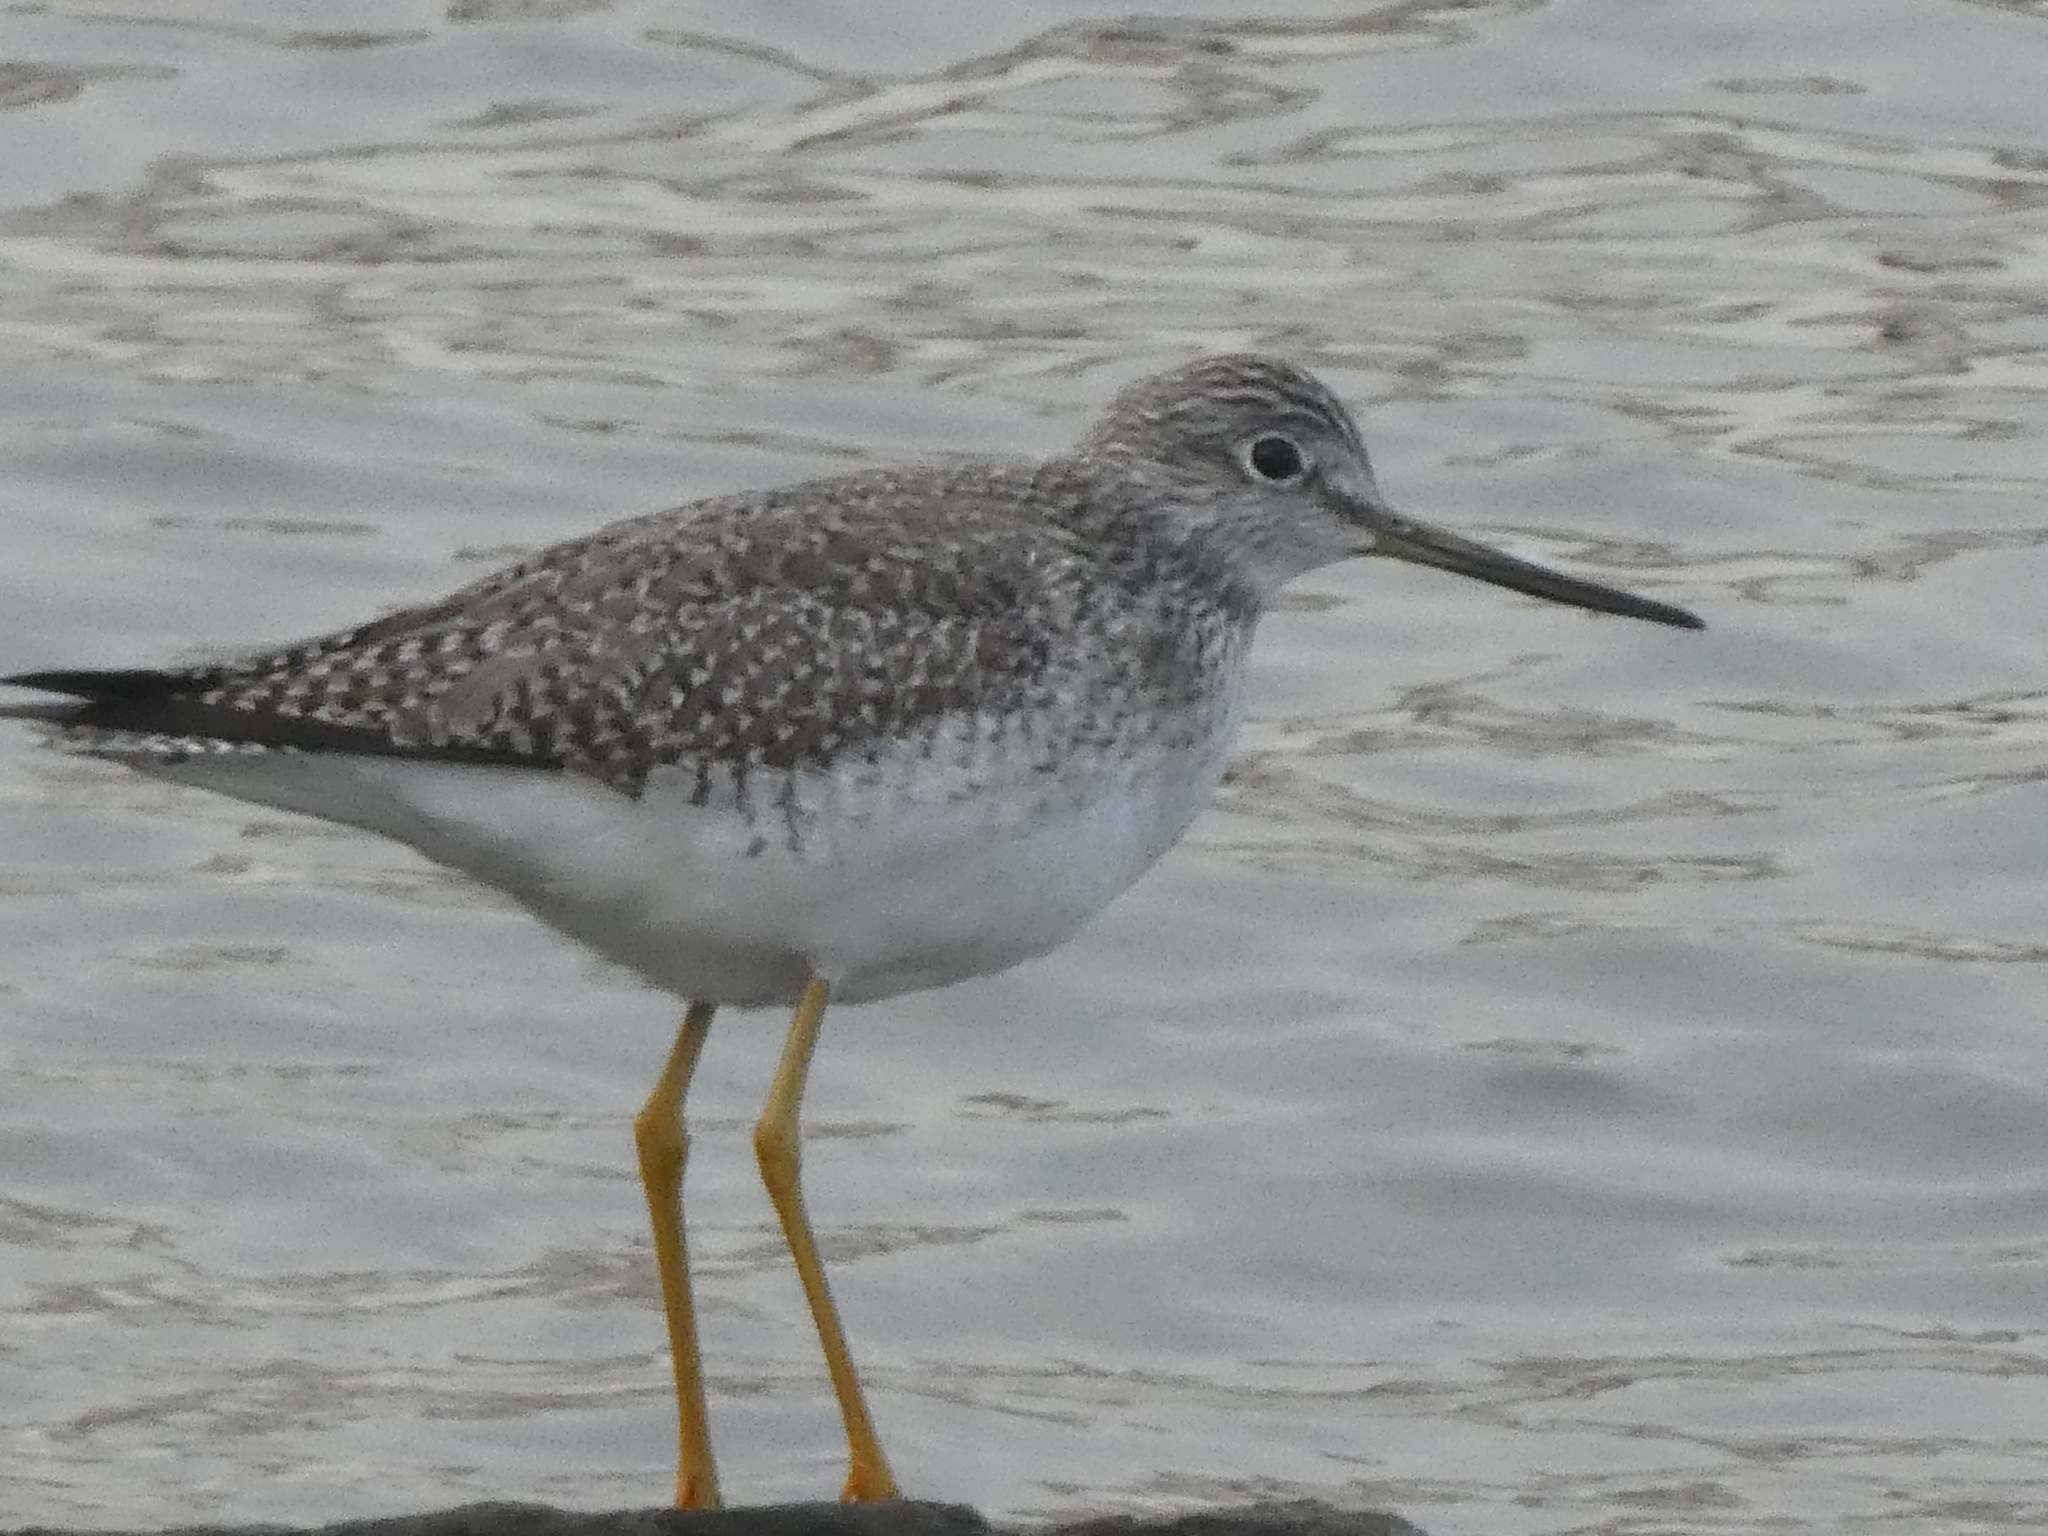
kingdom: Animalia
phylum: Chordata
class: Aves
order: Charadriiformes
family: Scolopacidae
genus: Tringa
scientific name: Tringa melanoleuca
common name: Greater yellowlegs
